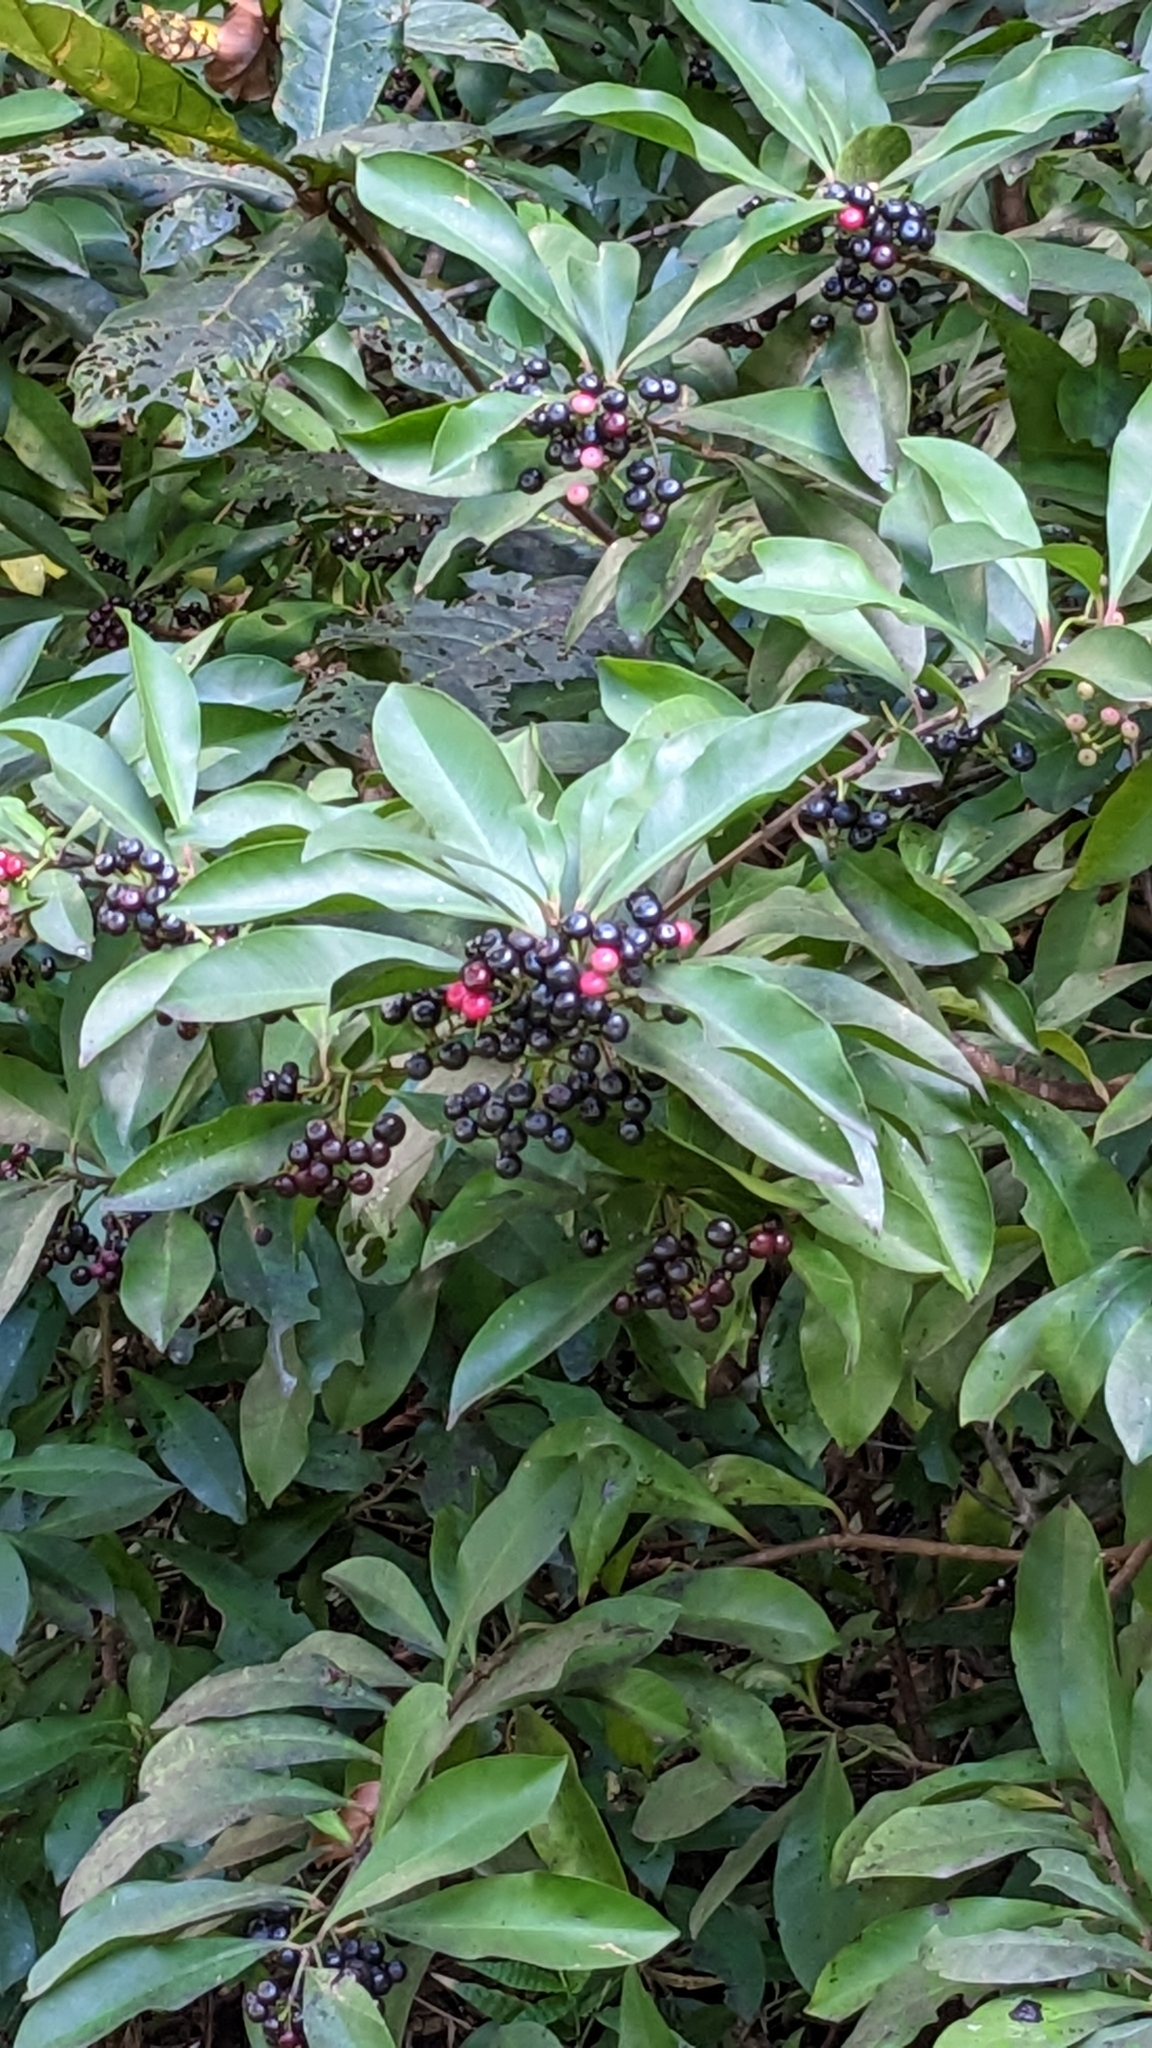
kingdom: Plantae
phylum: Tracheophyta
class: Magnoliopsida
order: Ericales
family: Primulaceae
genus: Ardisia
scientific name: Ardisia elliptica
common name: Shoebutton
